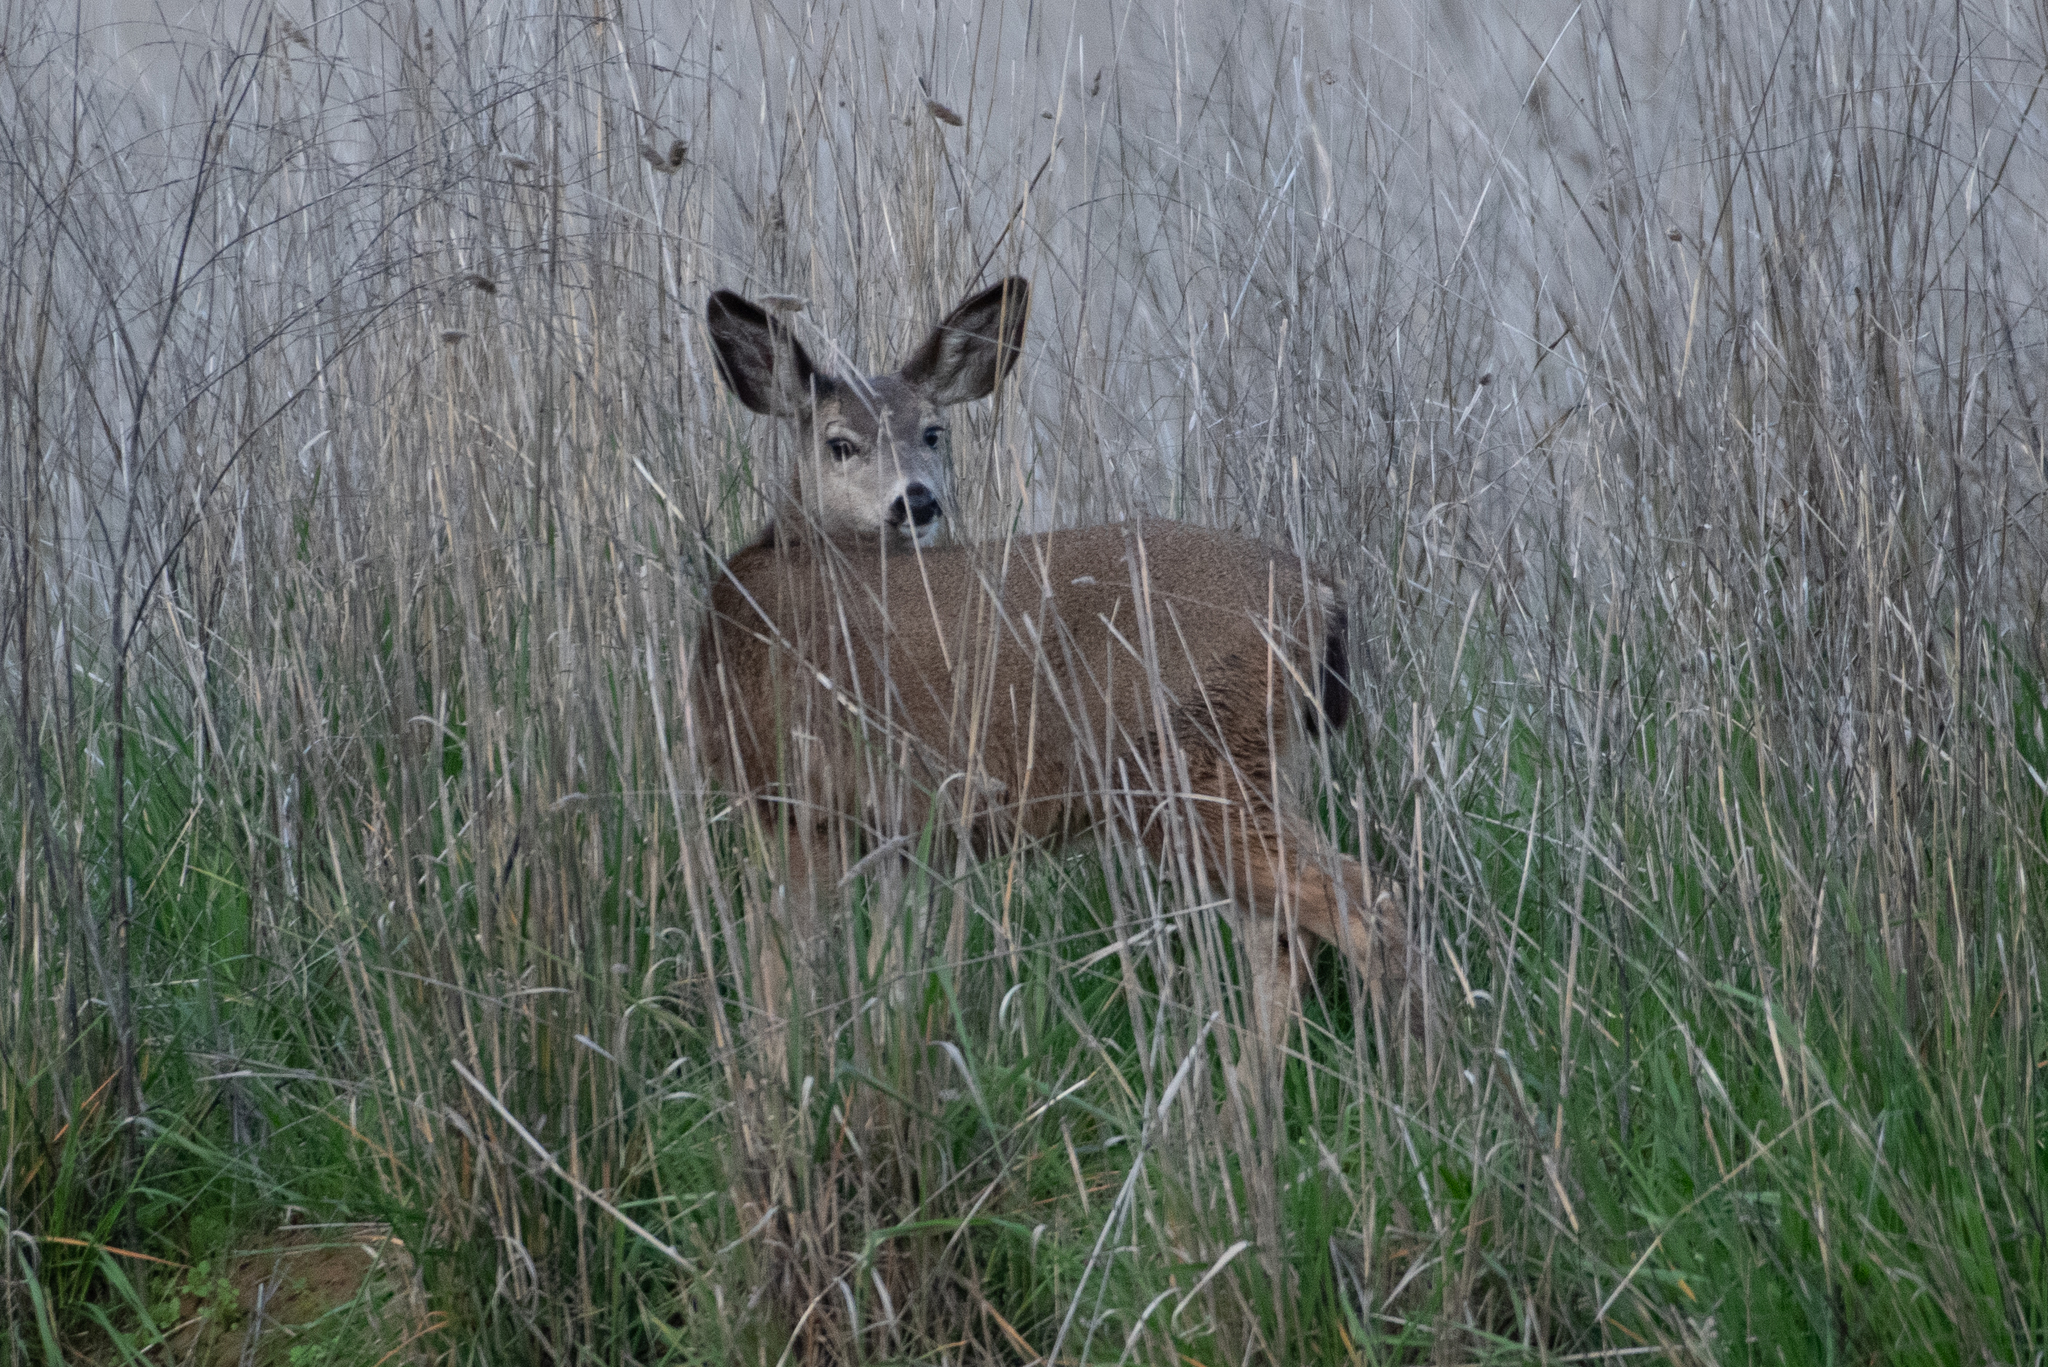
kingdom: Animalia
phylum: Chordata
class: Mammalia
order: Artiodactyla
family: Cervidae
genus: Odocoileus
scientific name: Odocoileus hemionus
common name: Mule deer
